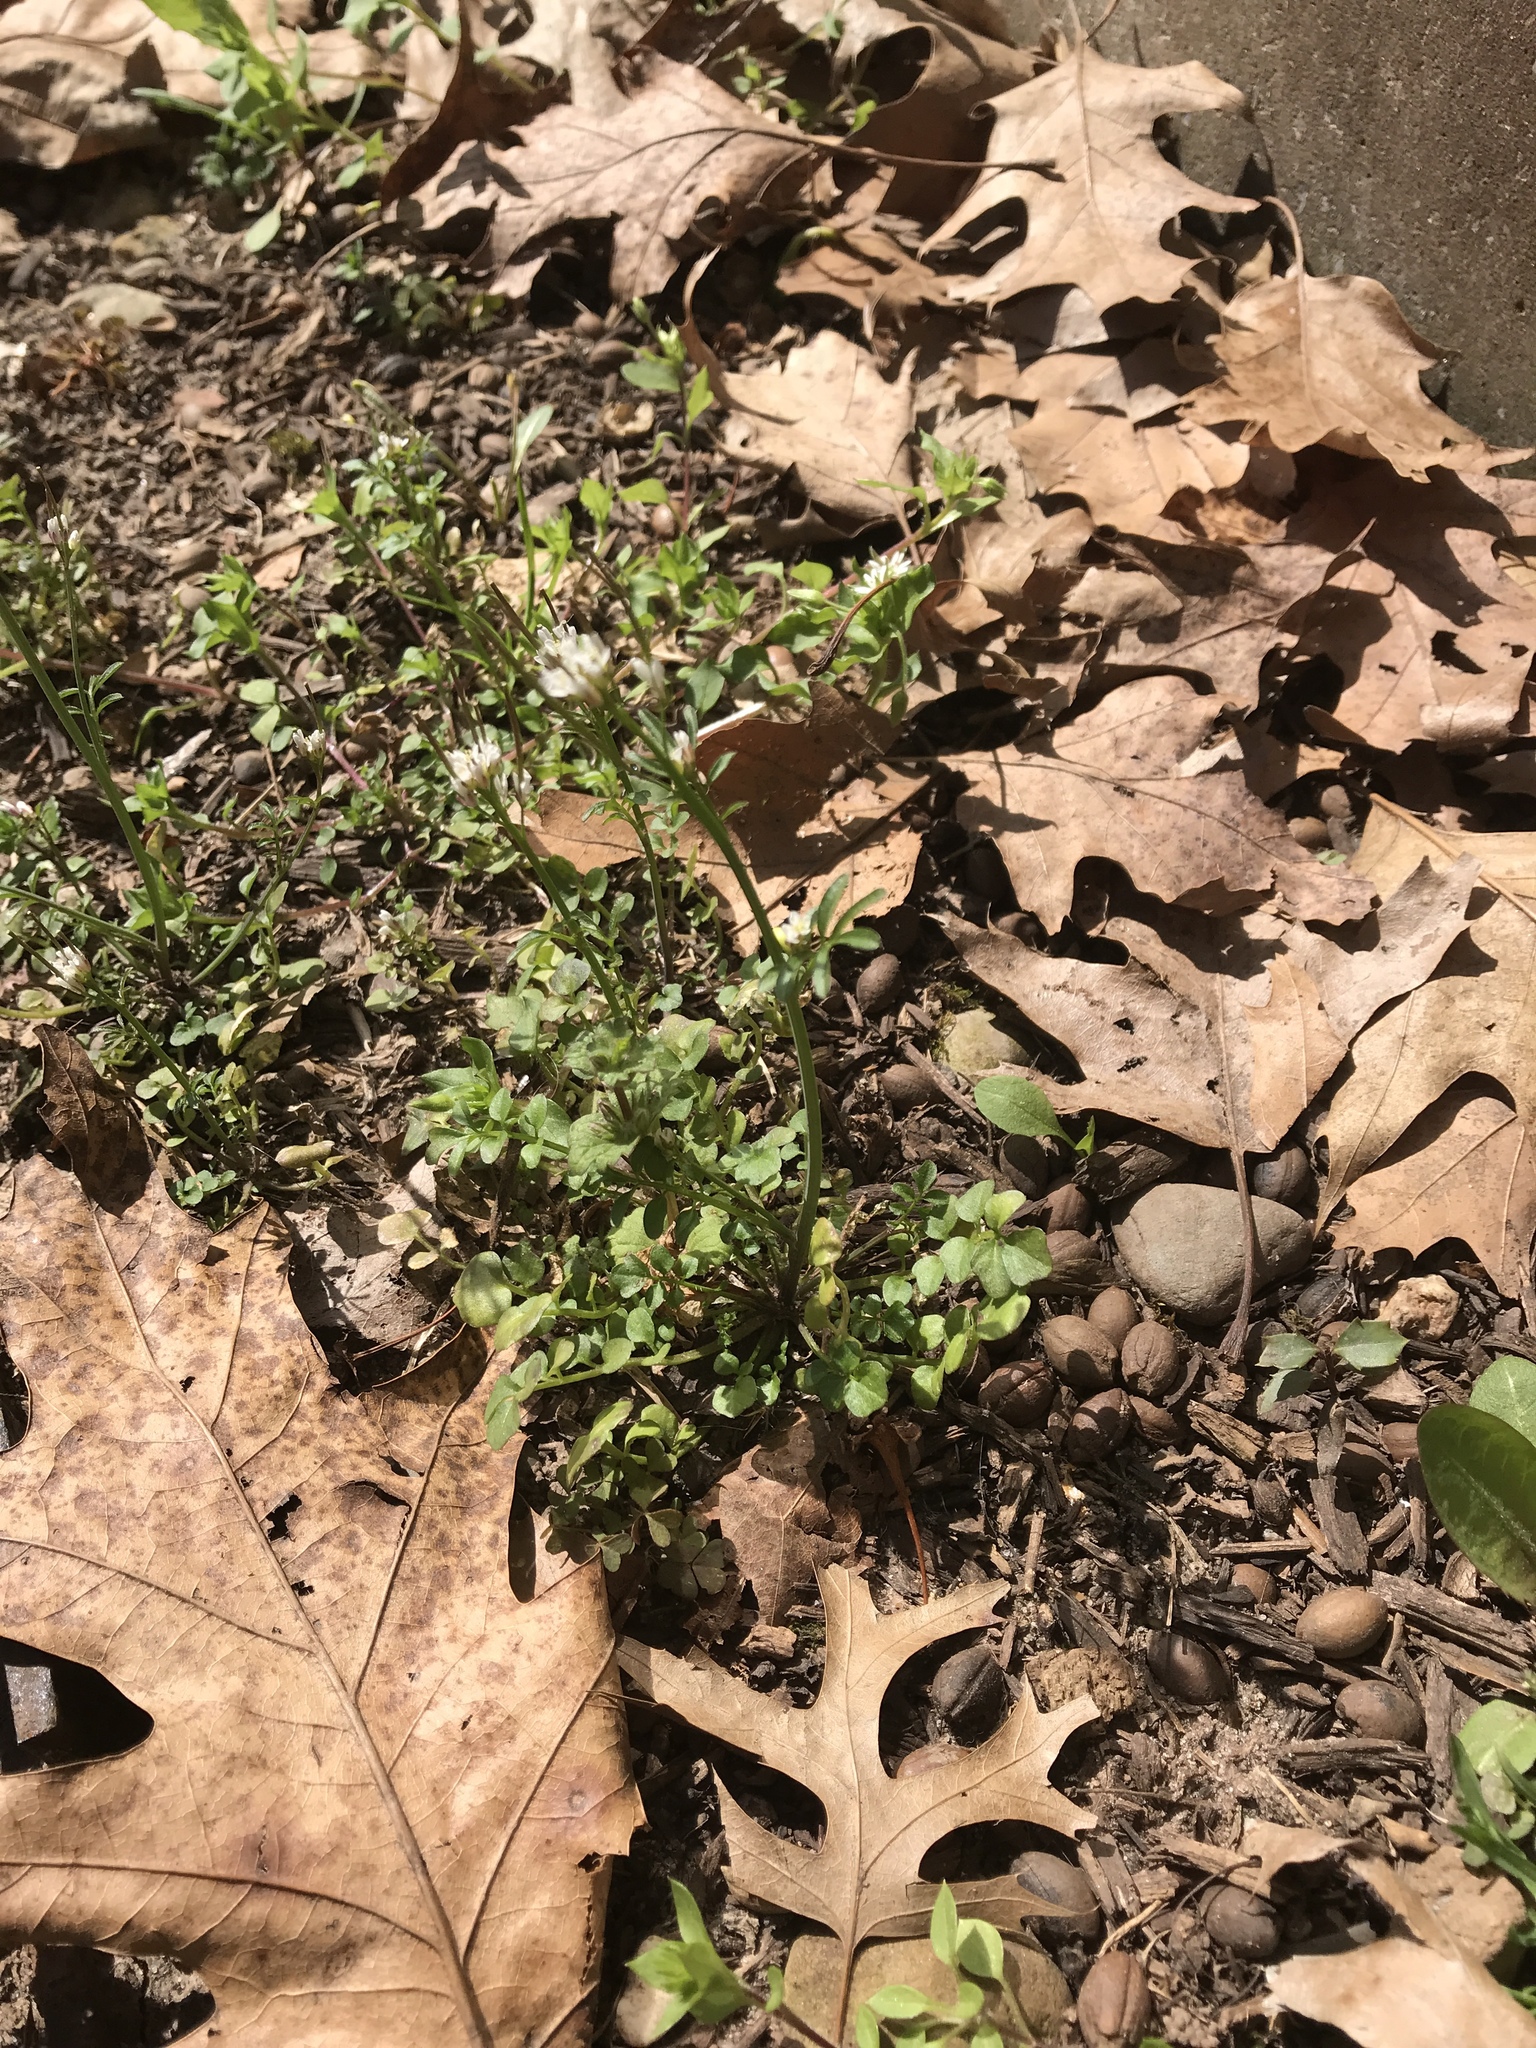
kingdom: Plantae
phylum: Tracheophyta
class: Magnoliopsida
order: Brassicales
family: Brassicaceae
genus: Cardamine
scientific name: Cardamine hirsuta
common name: Hairy bittercress
